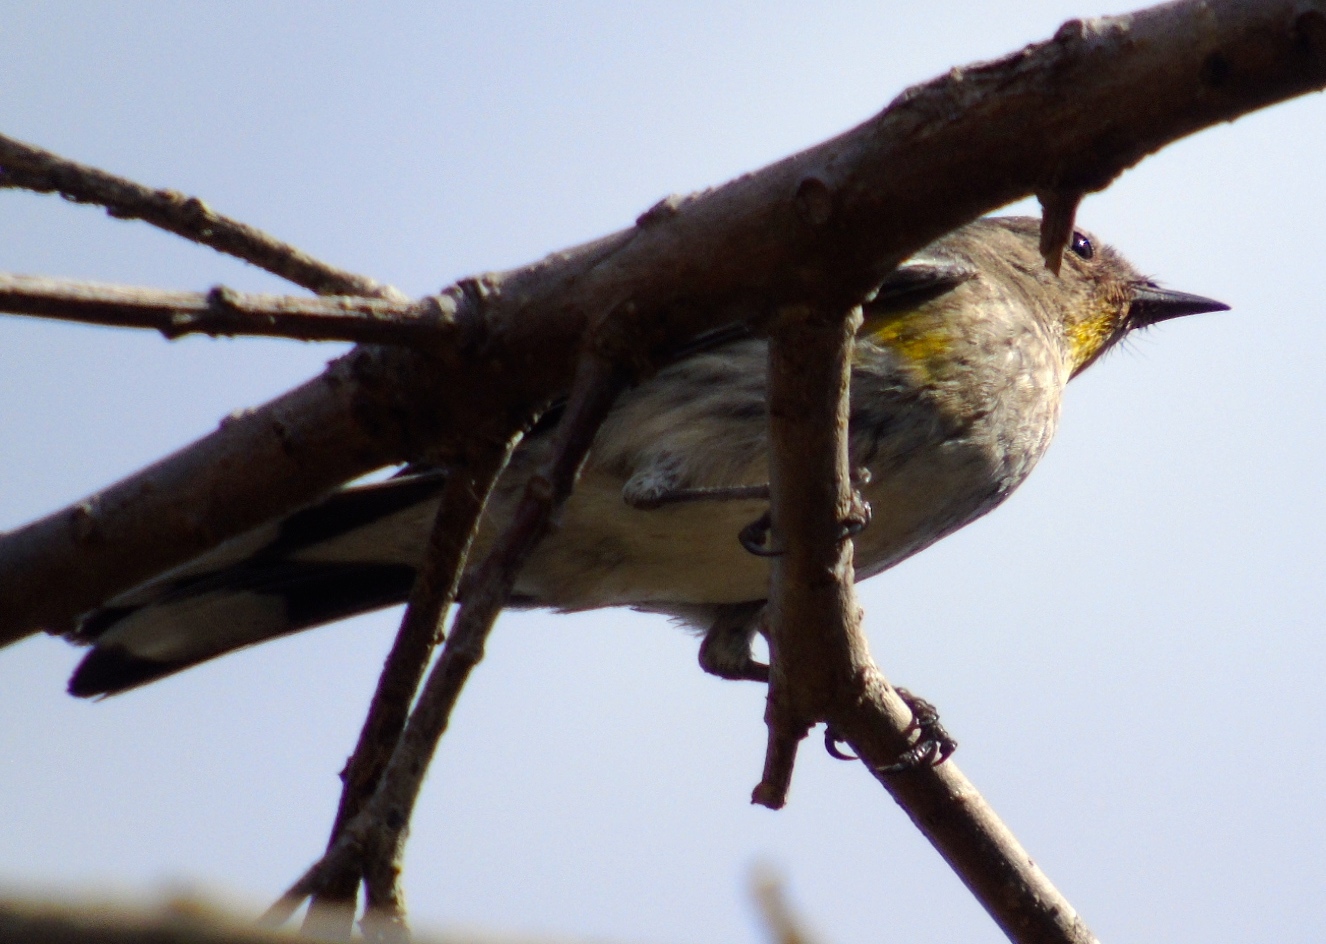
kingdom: Animalia
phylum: Chordata
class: Aves
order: Passeriformes
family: Parulidae
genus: Setophaga
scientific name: Setophaga auduboni
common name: Audubon's warbler
